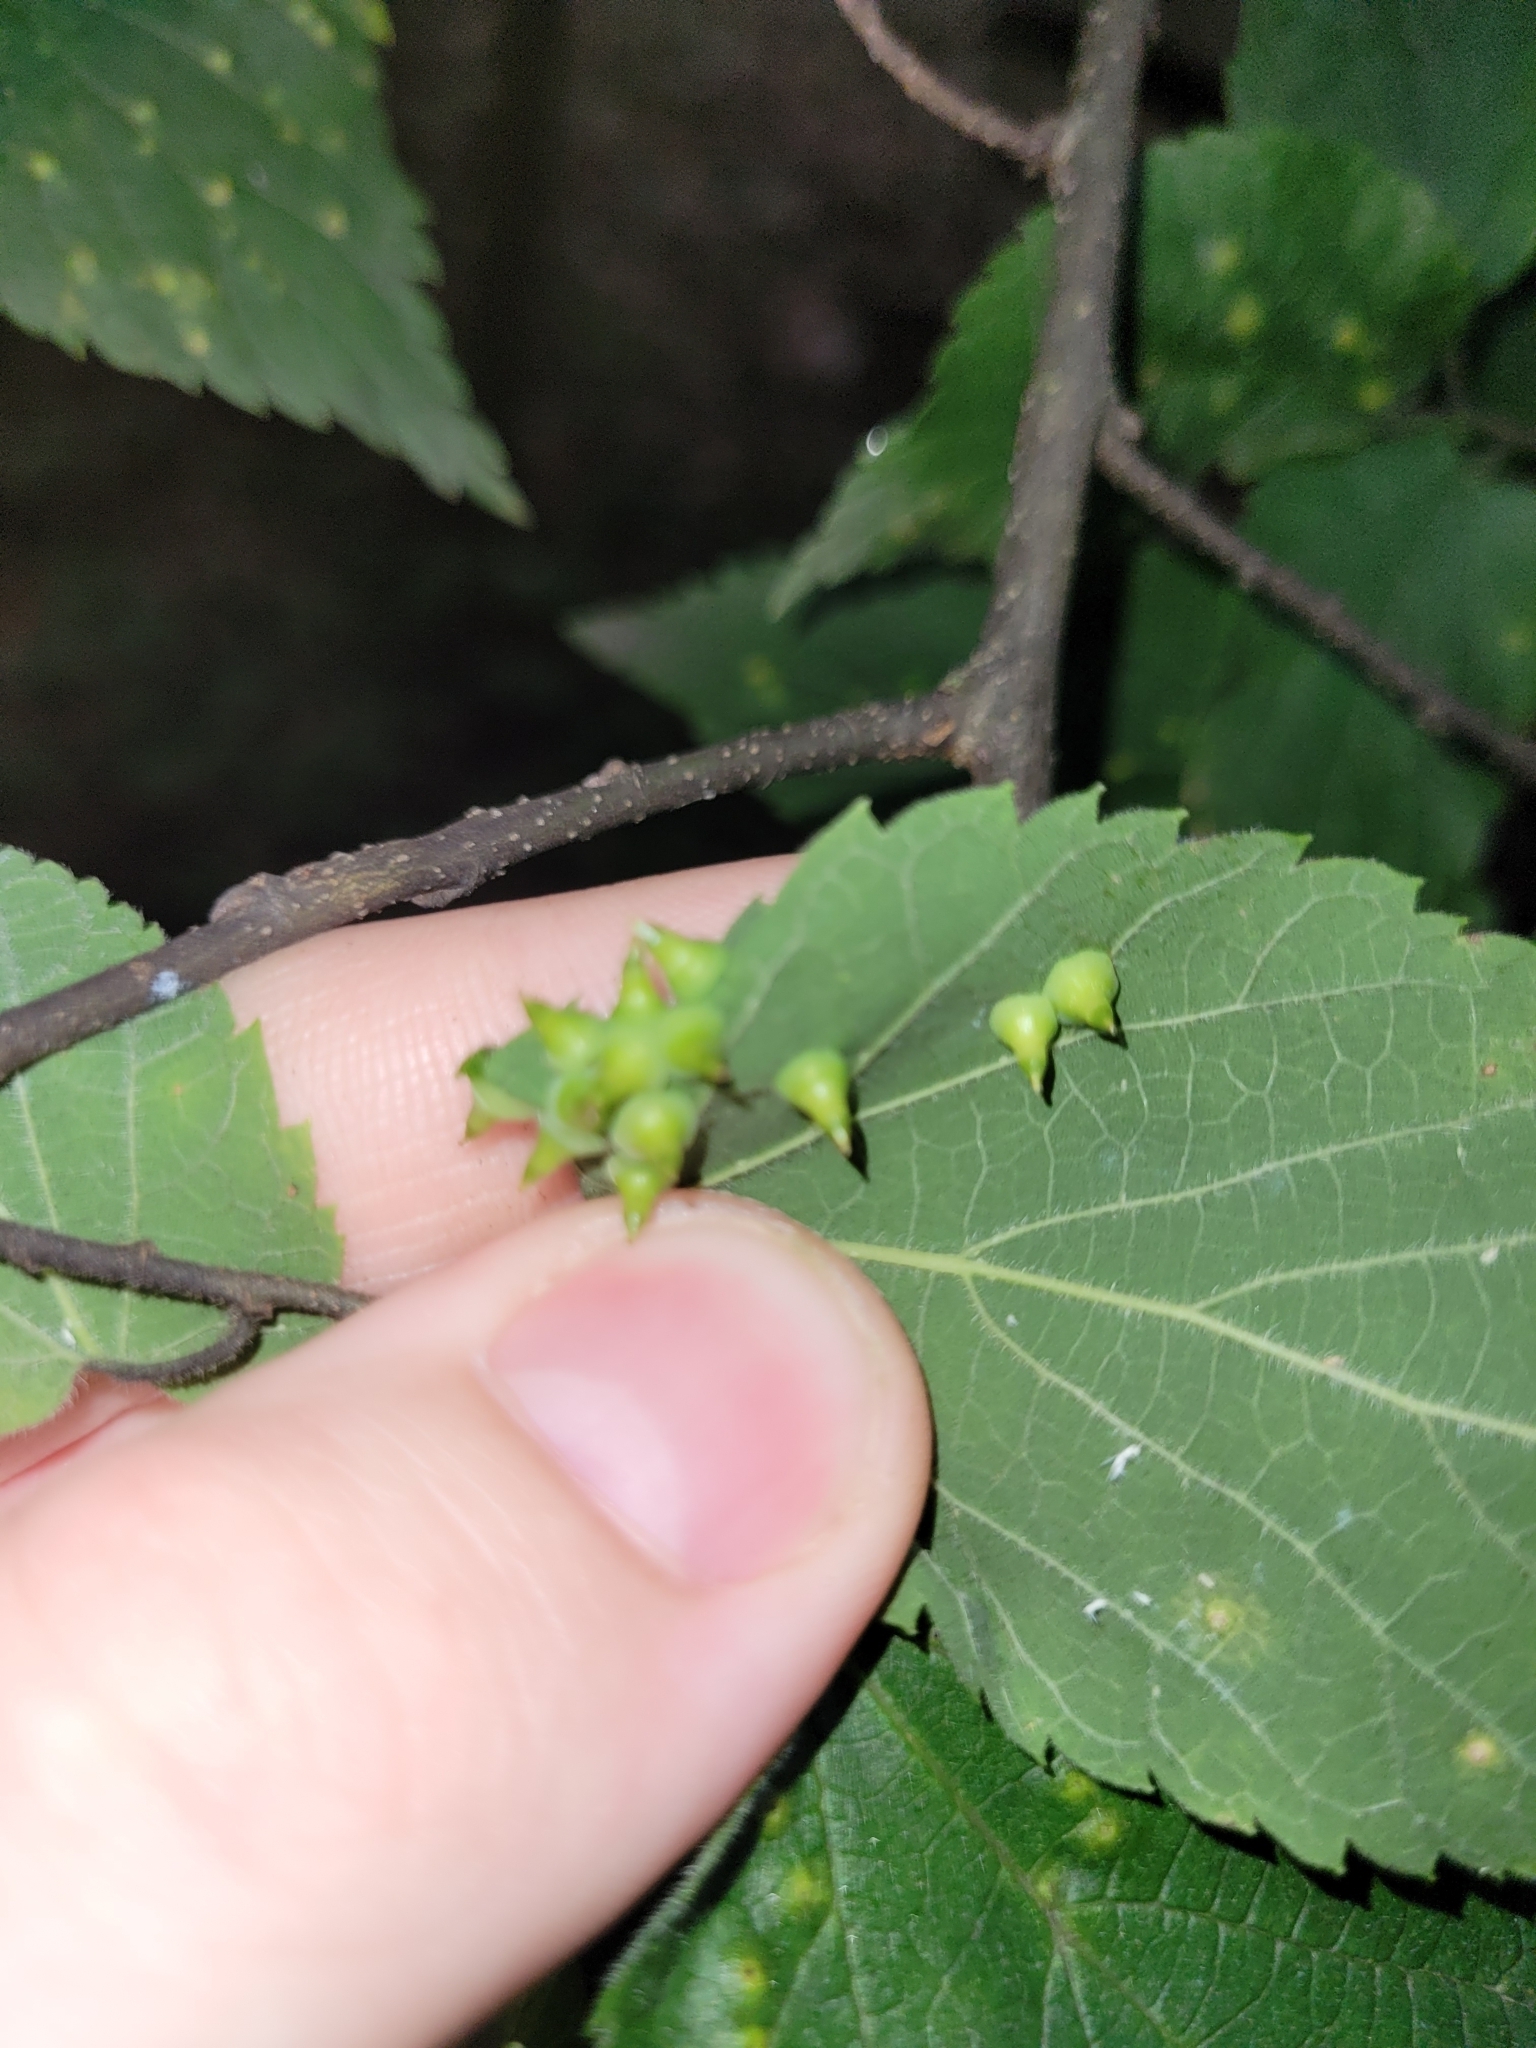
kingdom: Animalia
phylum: Arthropoda
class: Insecta
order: Diptera
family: Cecidomyiidae
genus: Celticecis
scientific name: Celticecis spiniformis
